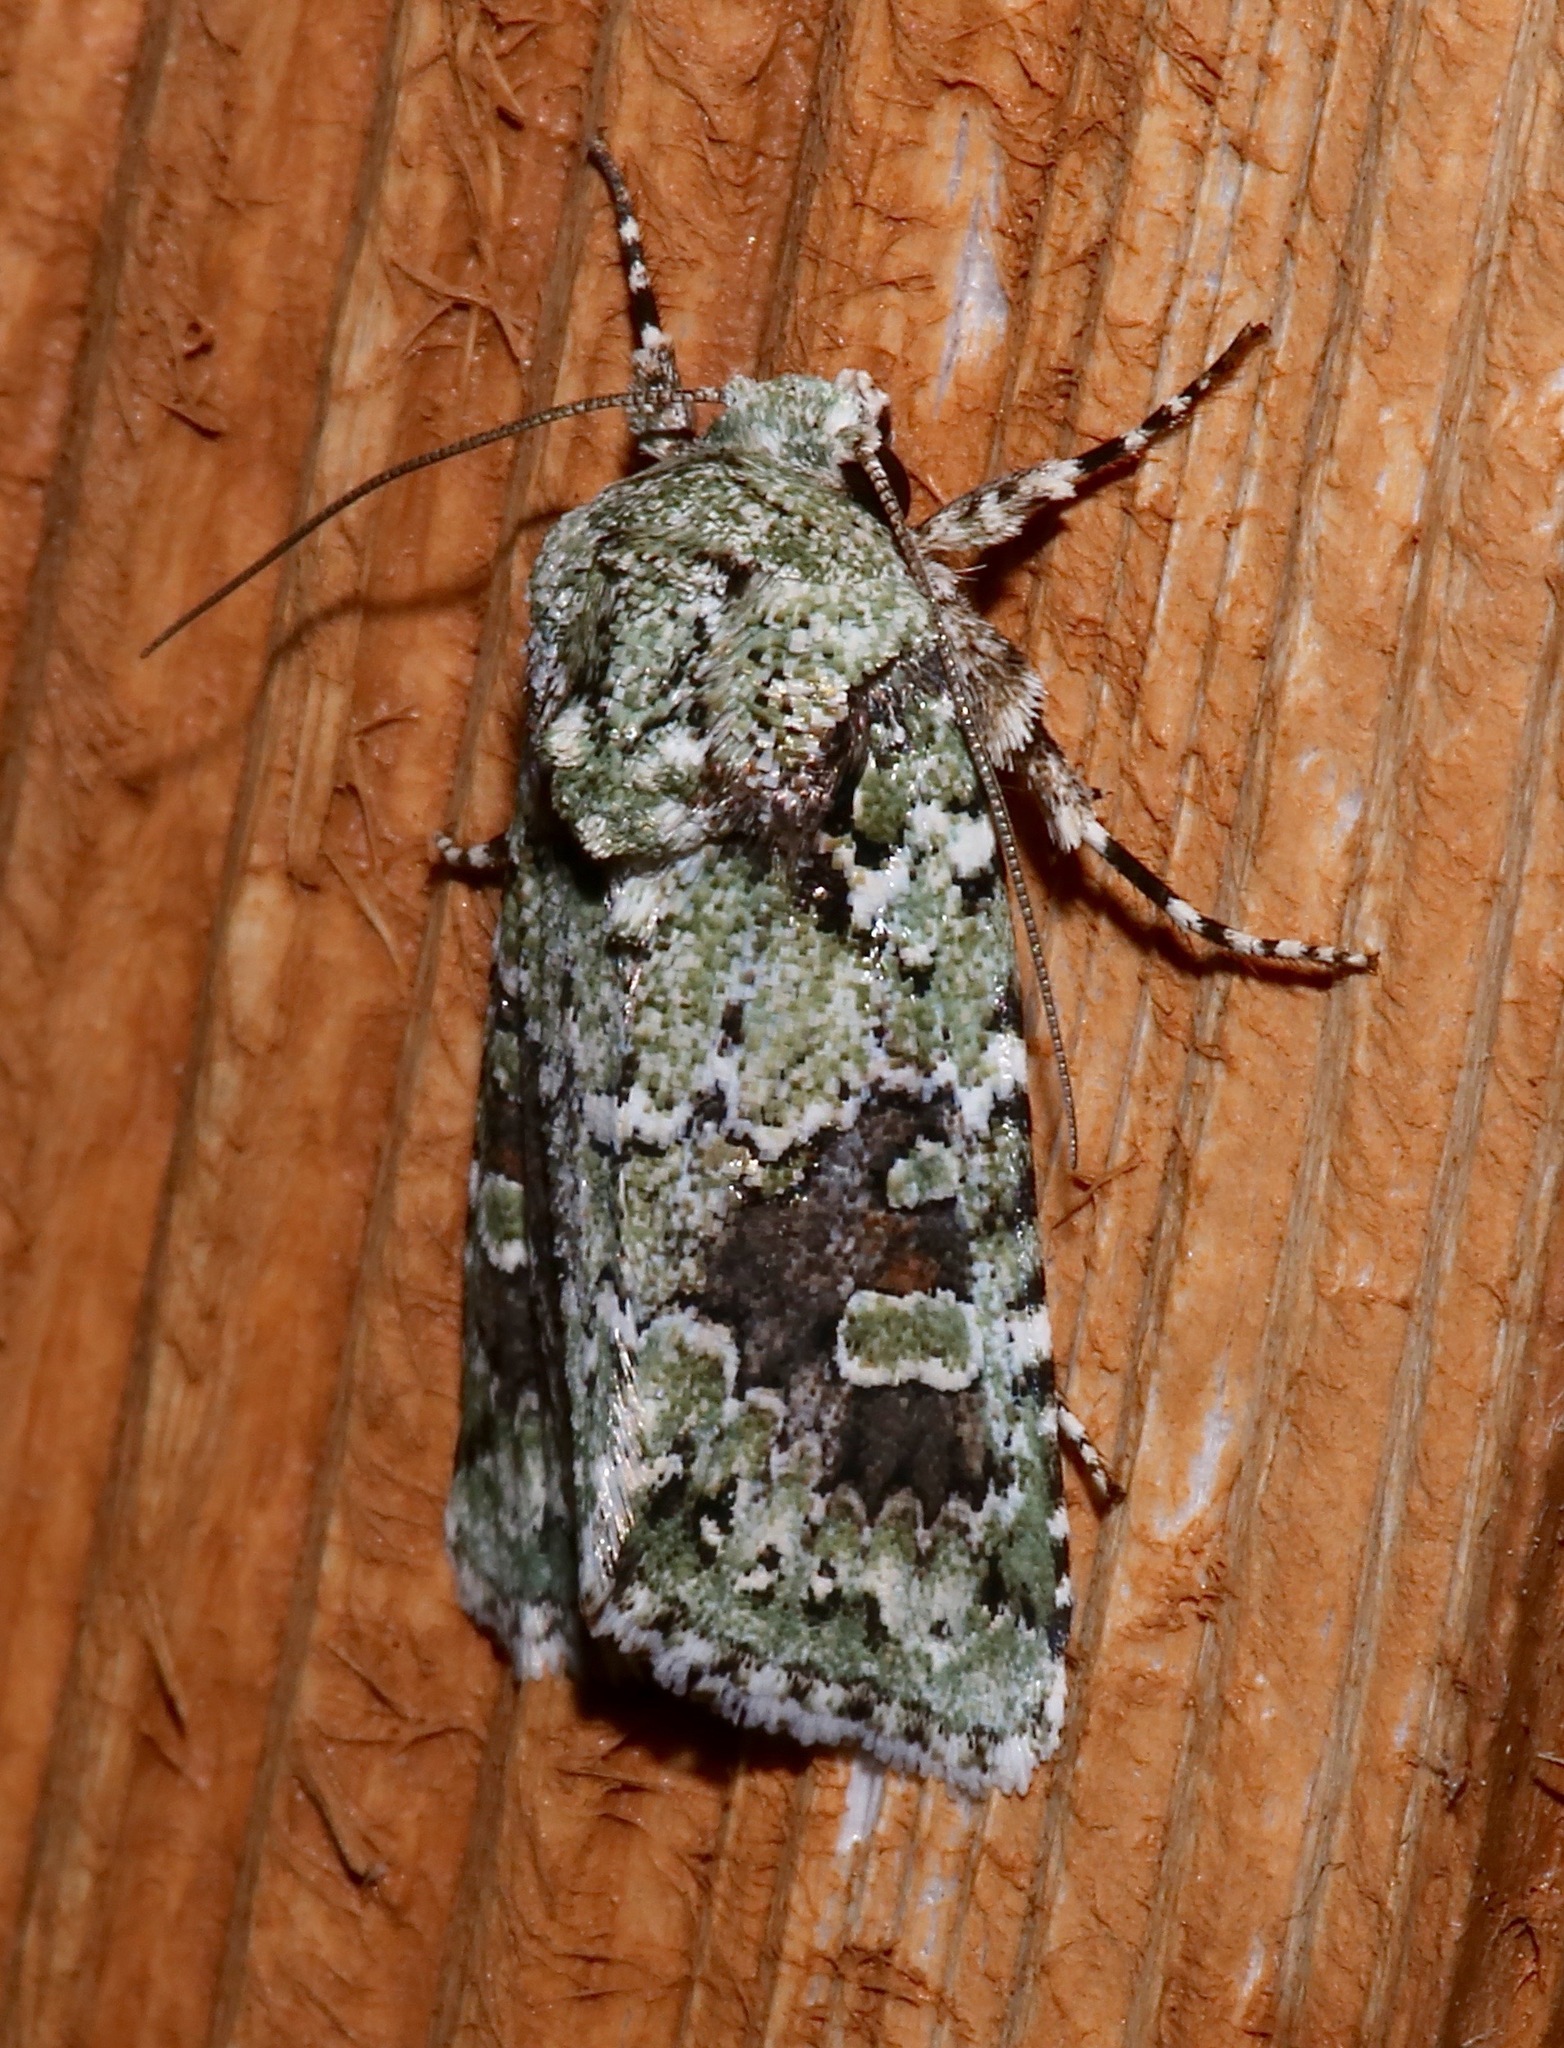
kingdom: Animalia
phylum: Arthropoda
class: Insecta
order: Lepidoptera
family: Noctuidae
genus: Lacinipolia
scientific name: Lacinipolia laudabilis
